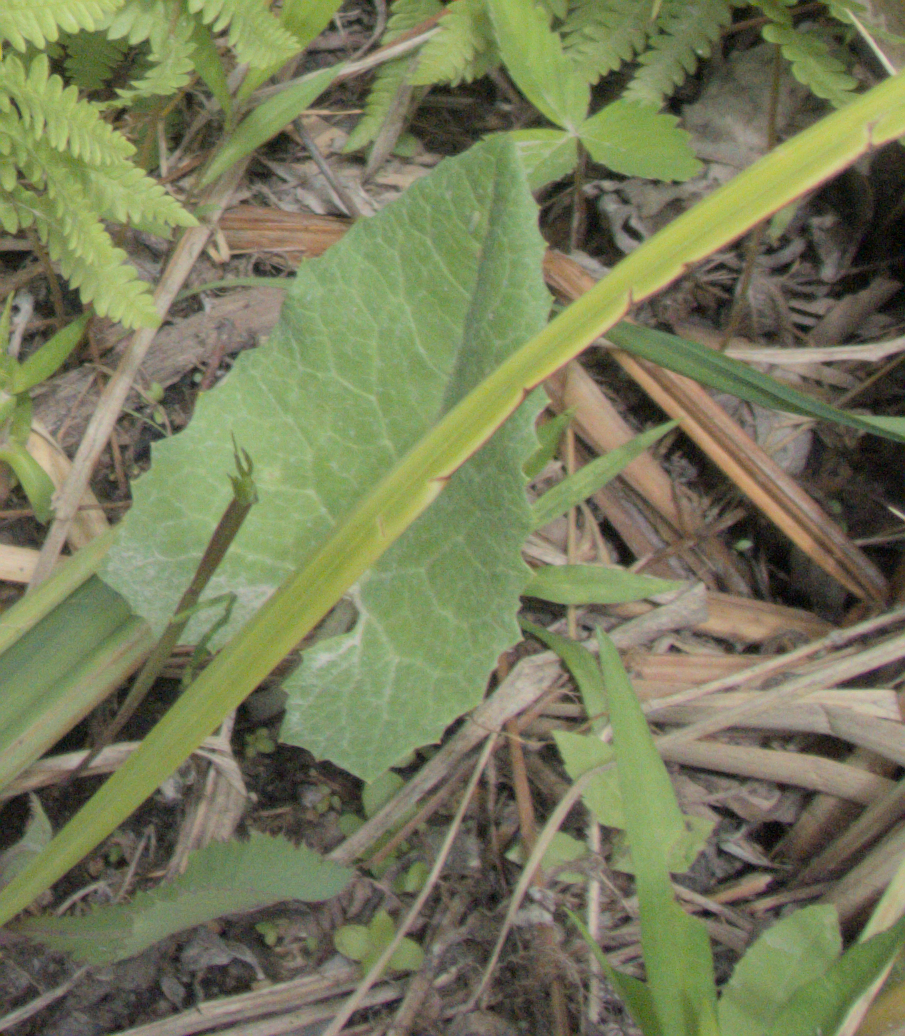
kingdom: Plantae
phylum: Tracheophyta
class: Magnoliopsida
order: Asterales
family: Asteraceae
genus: Petasites
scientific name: Petasites frigidus
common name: Arctic butterbur
